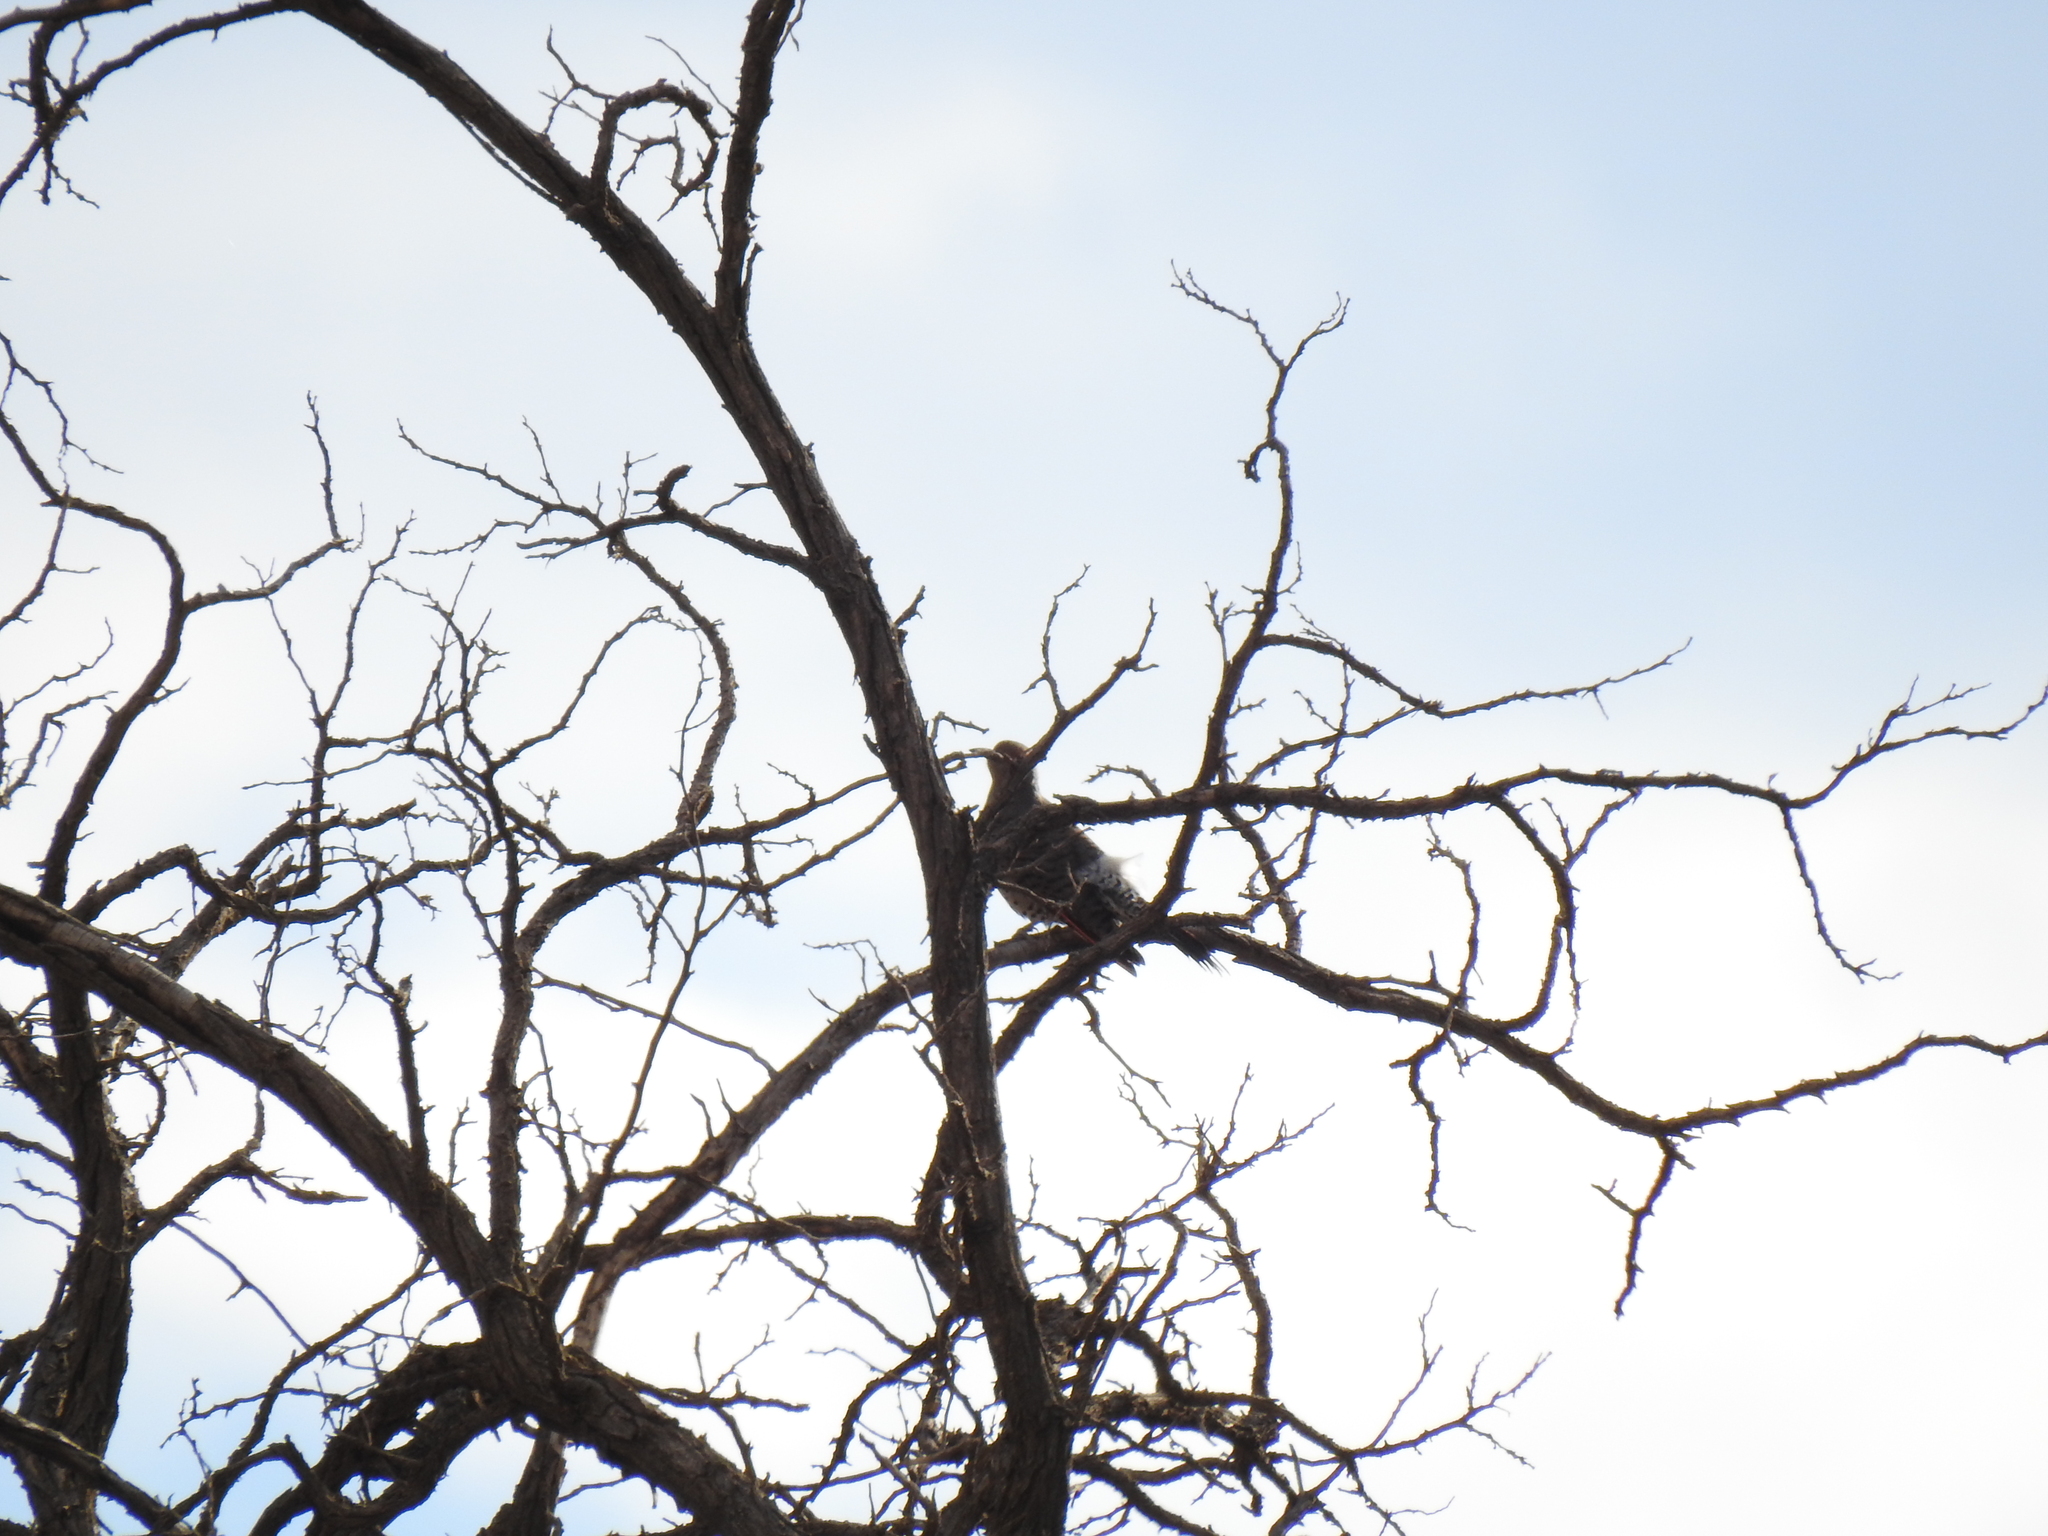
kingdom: Animalia
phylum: Chordata
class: Aves
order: Piciformes
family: Picidae
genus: Colaptes
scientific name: Colaptes auratus
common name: Northern flicker
